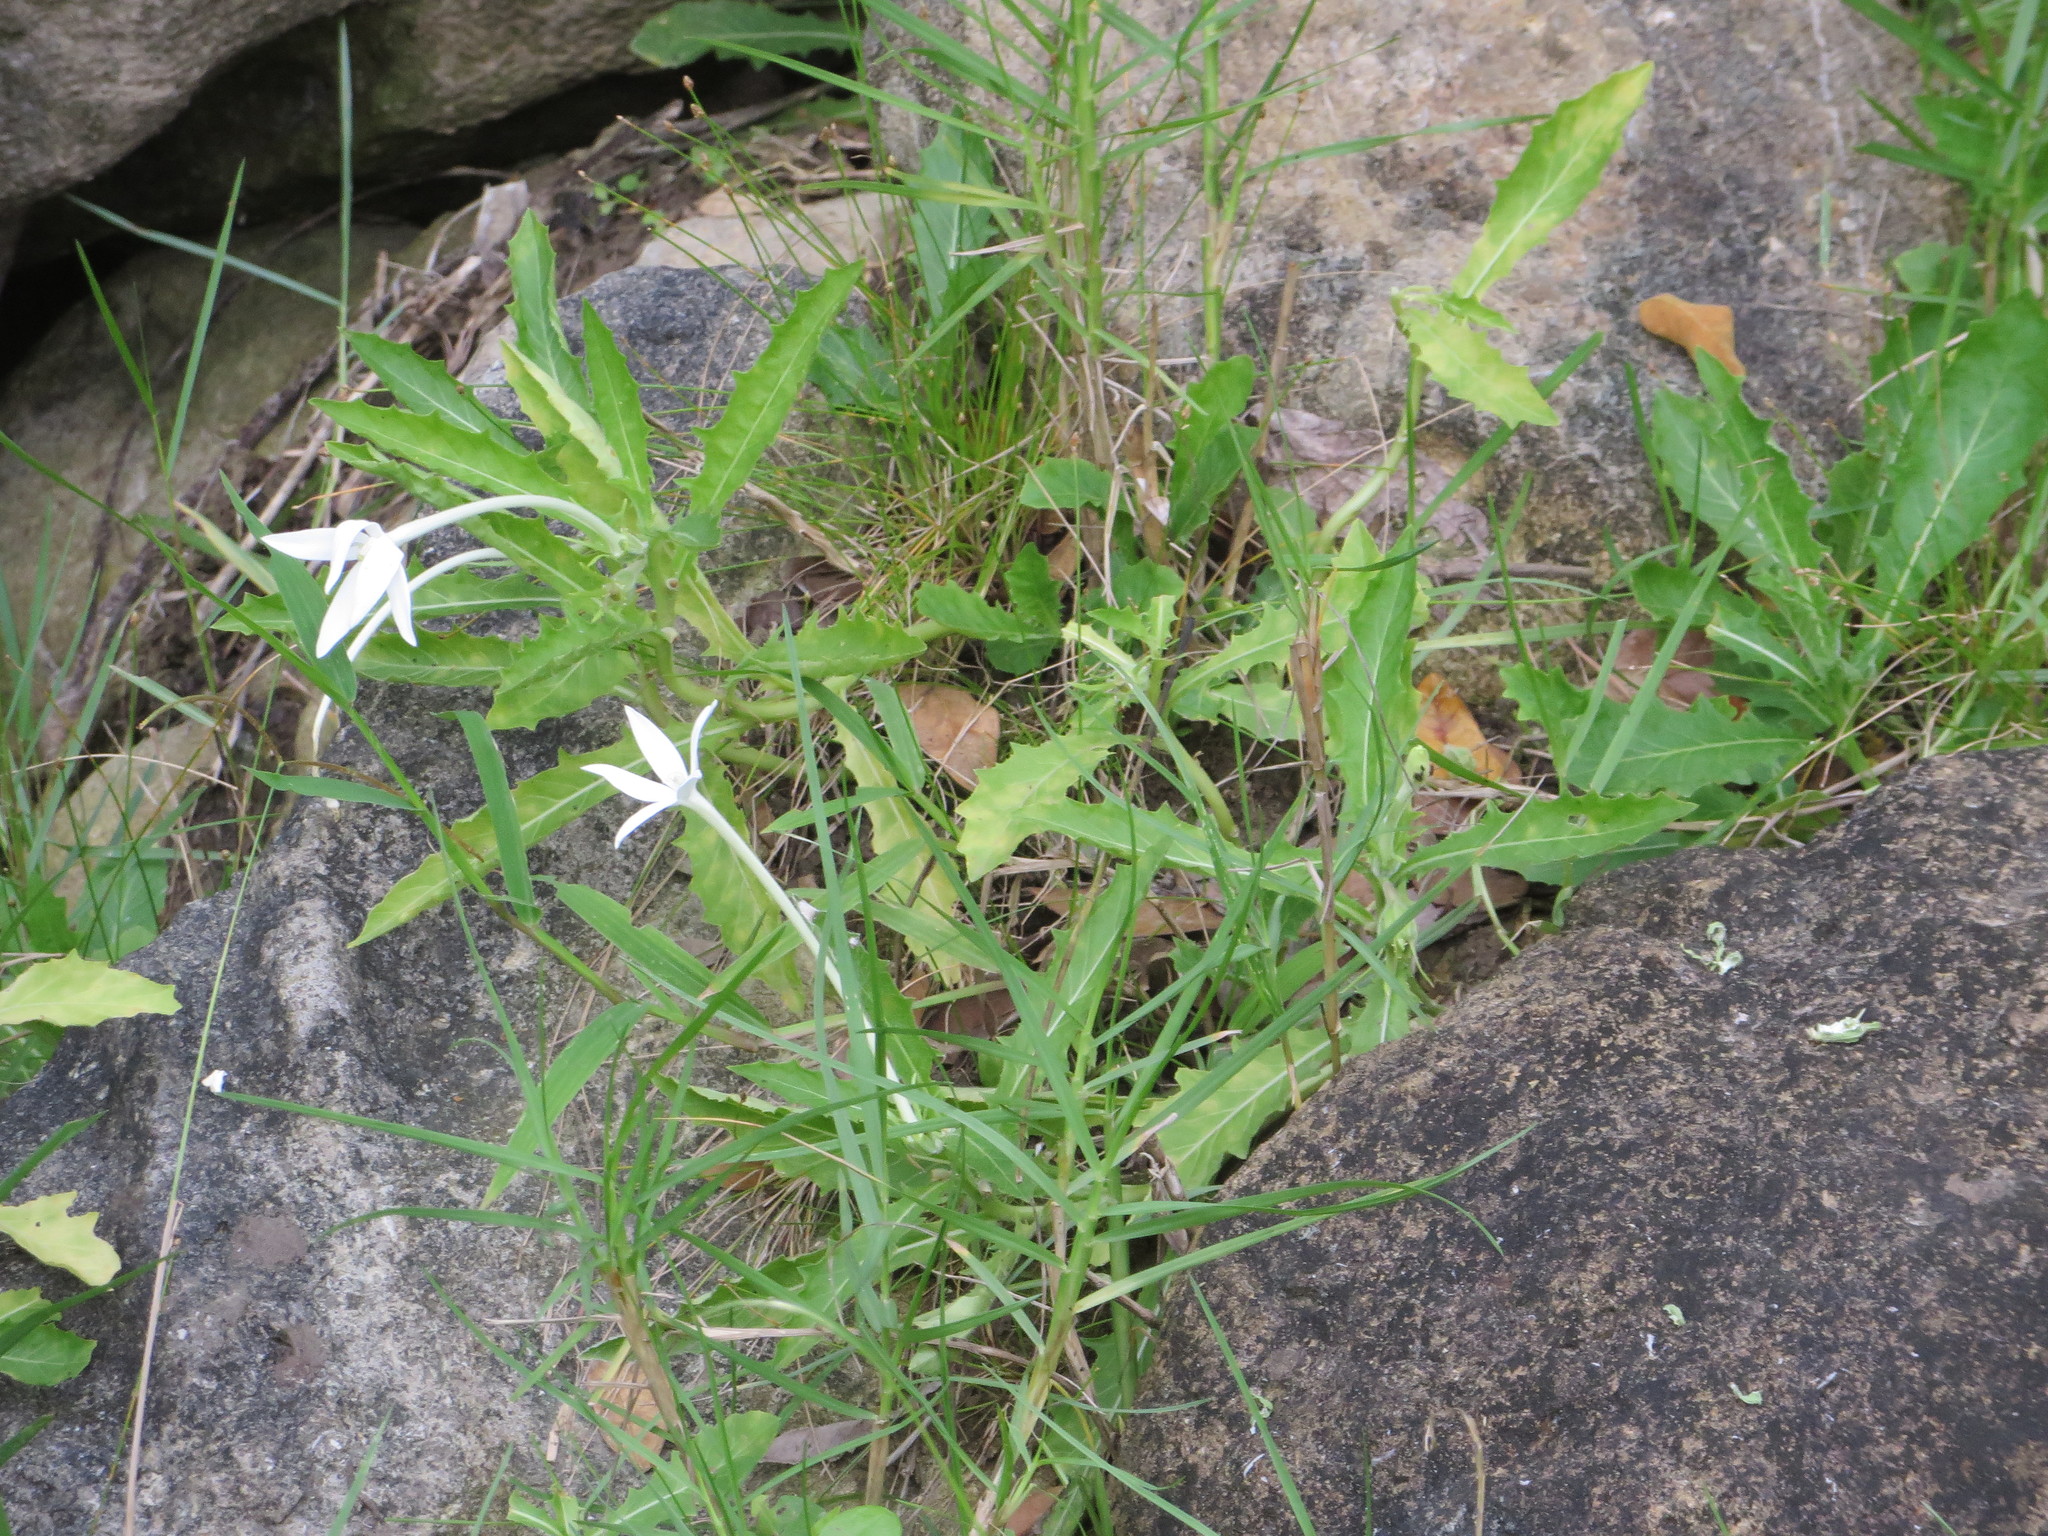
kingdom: Plantae
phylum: Tracheophyta
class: Magnoliopsida
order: Asterales
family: Campanulaceae
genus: Hippobroma
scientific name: Hippobroma longiflora
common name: Madamfate
